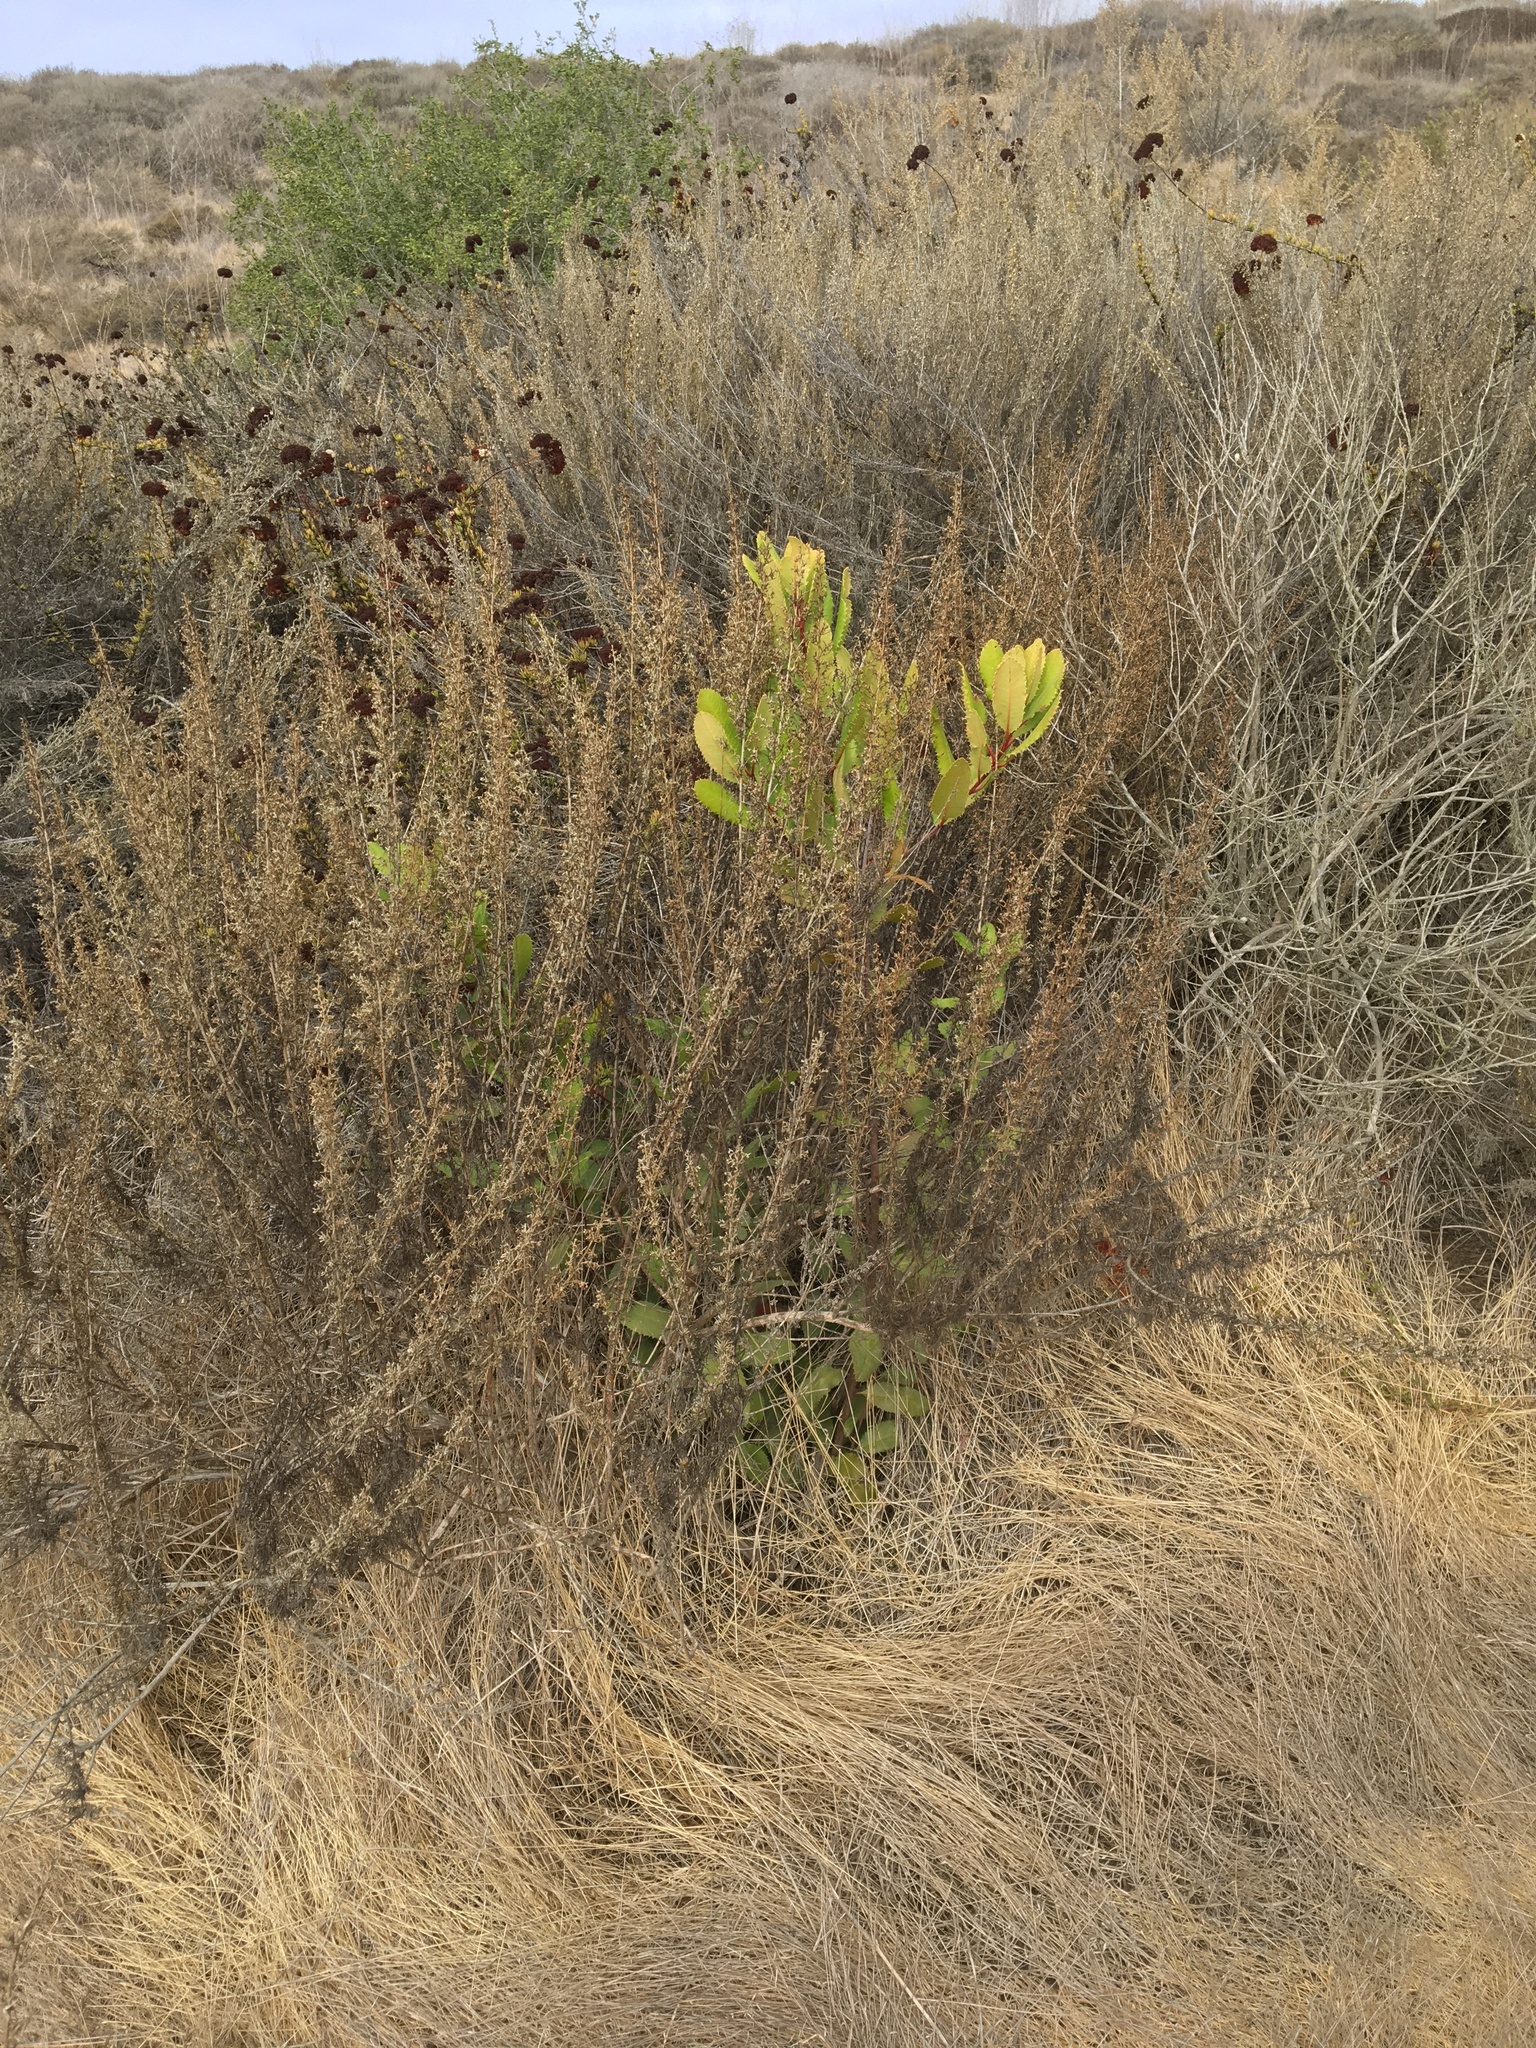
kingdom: Plantae
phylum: Tracheophyta
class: Magnoliopsida
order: Rosales
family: Rosaceae
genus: Heteromeles
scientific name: Heteromeles arbutifolia
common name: California-holly
